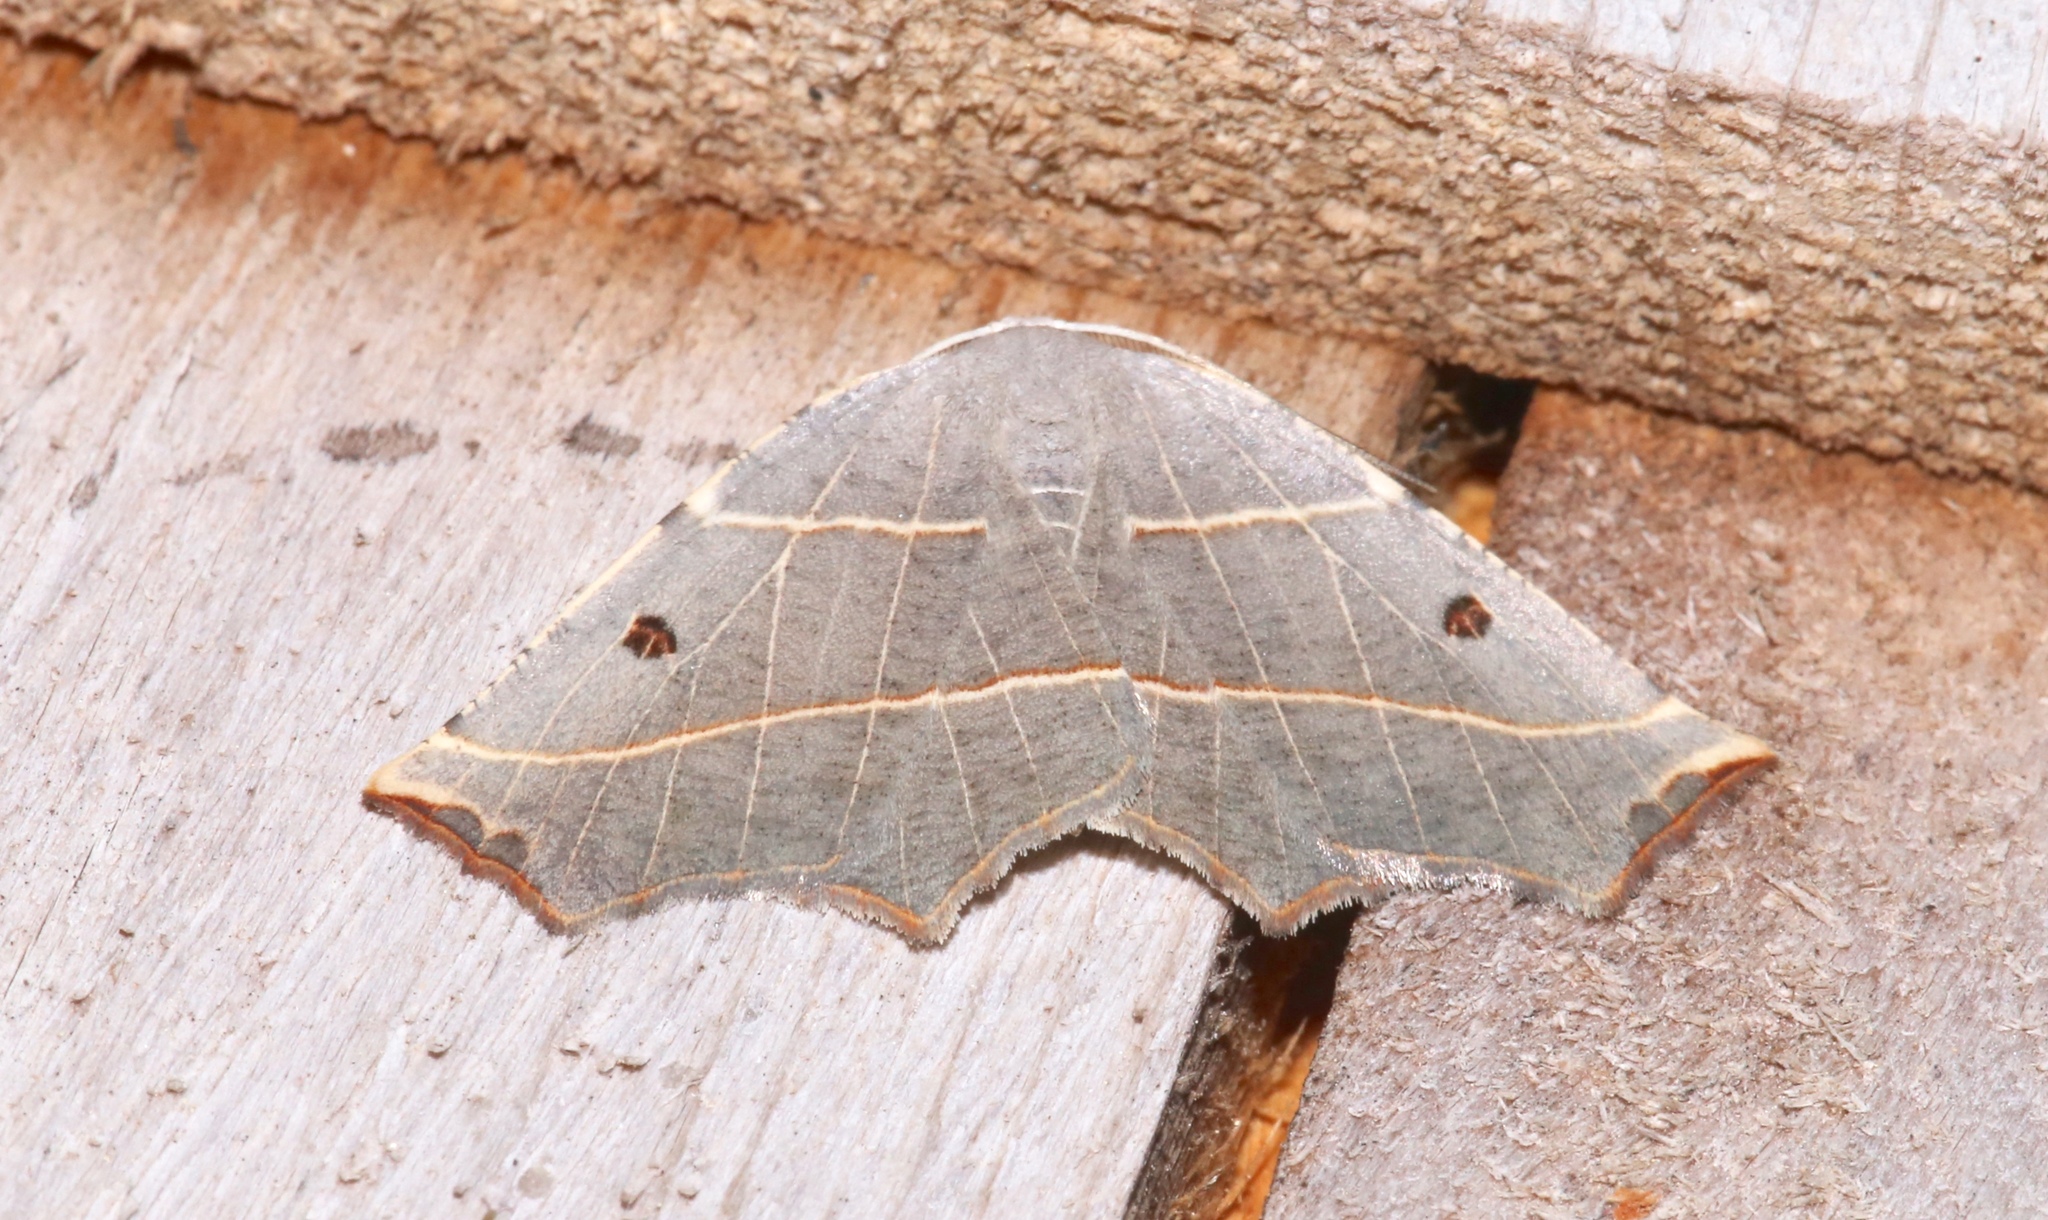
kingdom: Animalia
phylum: Arthropoda
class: Insecta
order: Lepidoptera
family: Geometridae
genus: Metanema
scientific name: Metanema inatomaria
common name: Pale metanema
